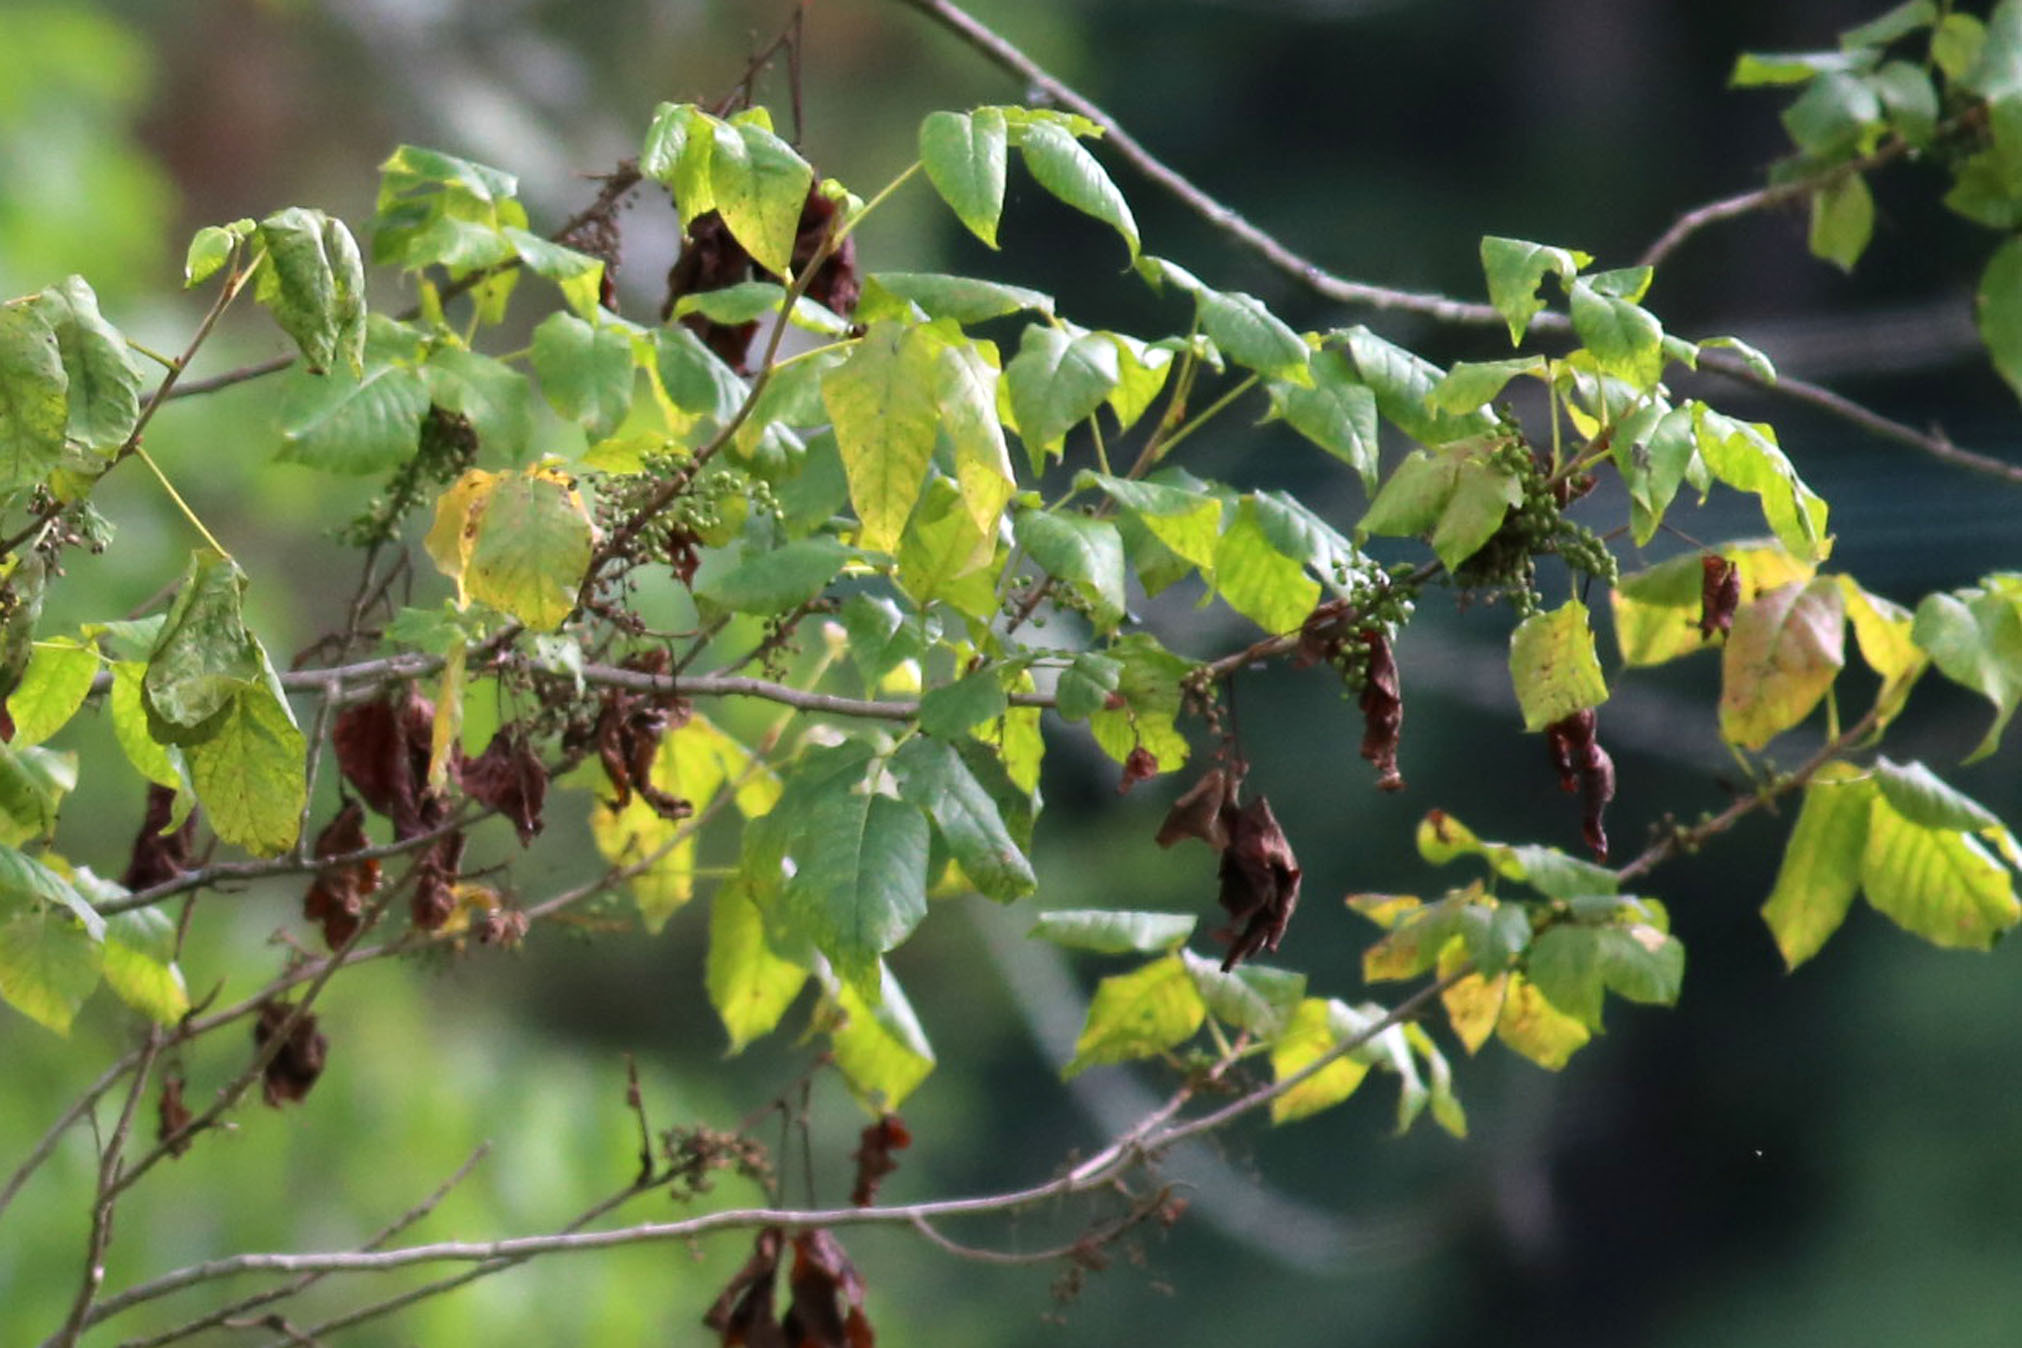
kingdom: Plantae
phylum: Tracheophyta
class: Magnoliopsida
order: Sapindales
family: Anacardiaceae
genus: Toxicodendron
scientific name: Toxicodendron radicans
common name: Poison ivy
